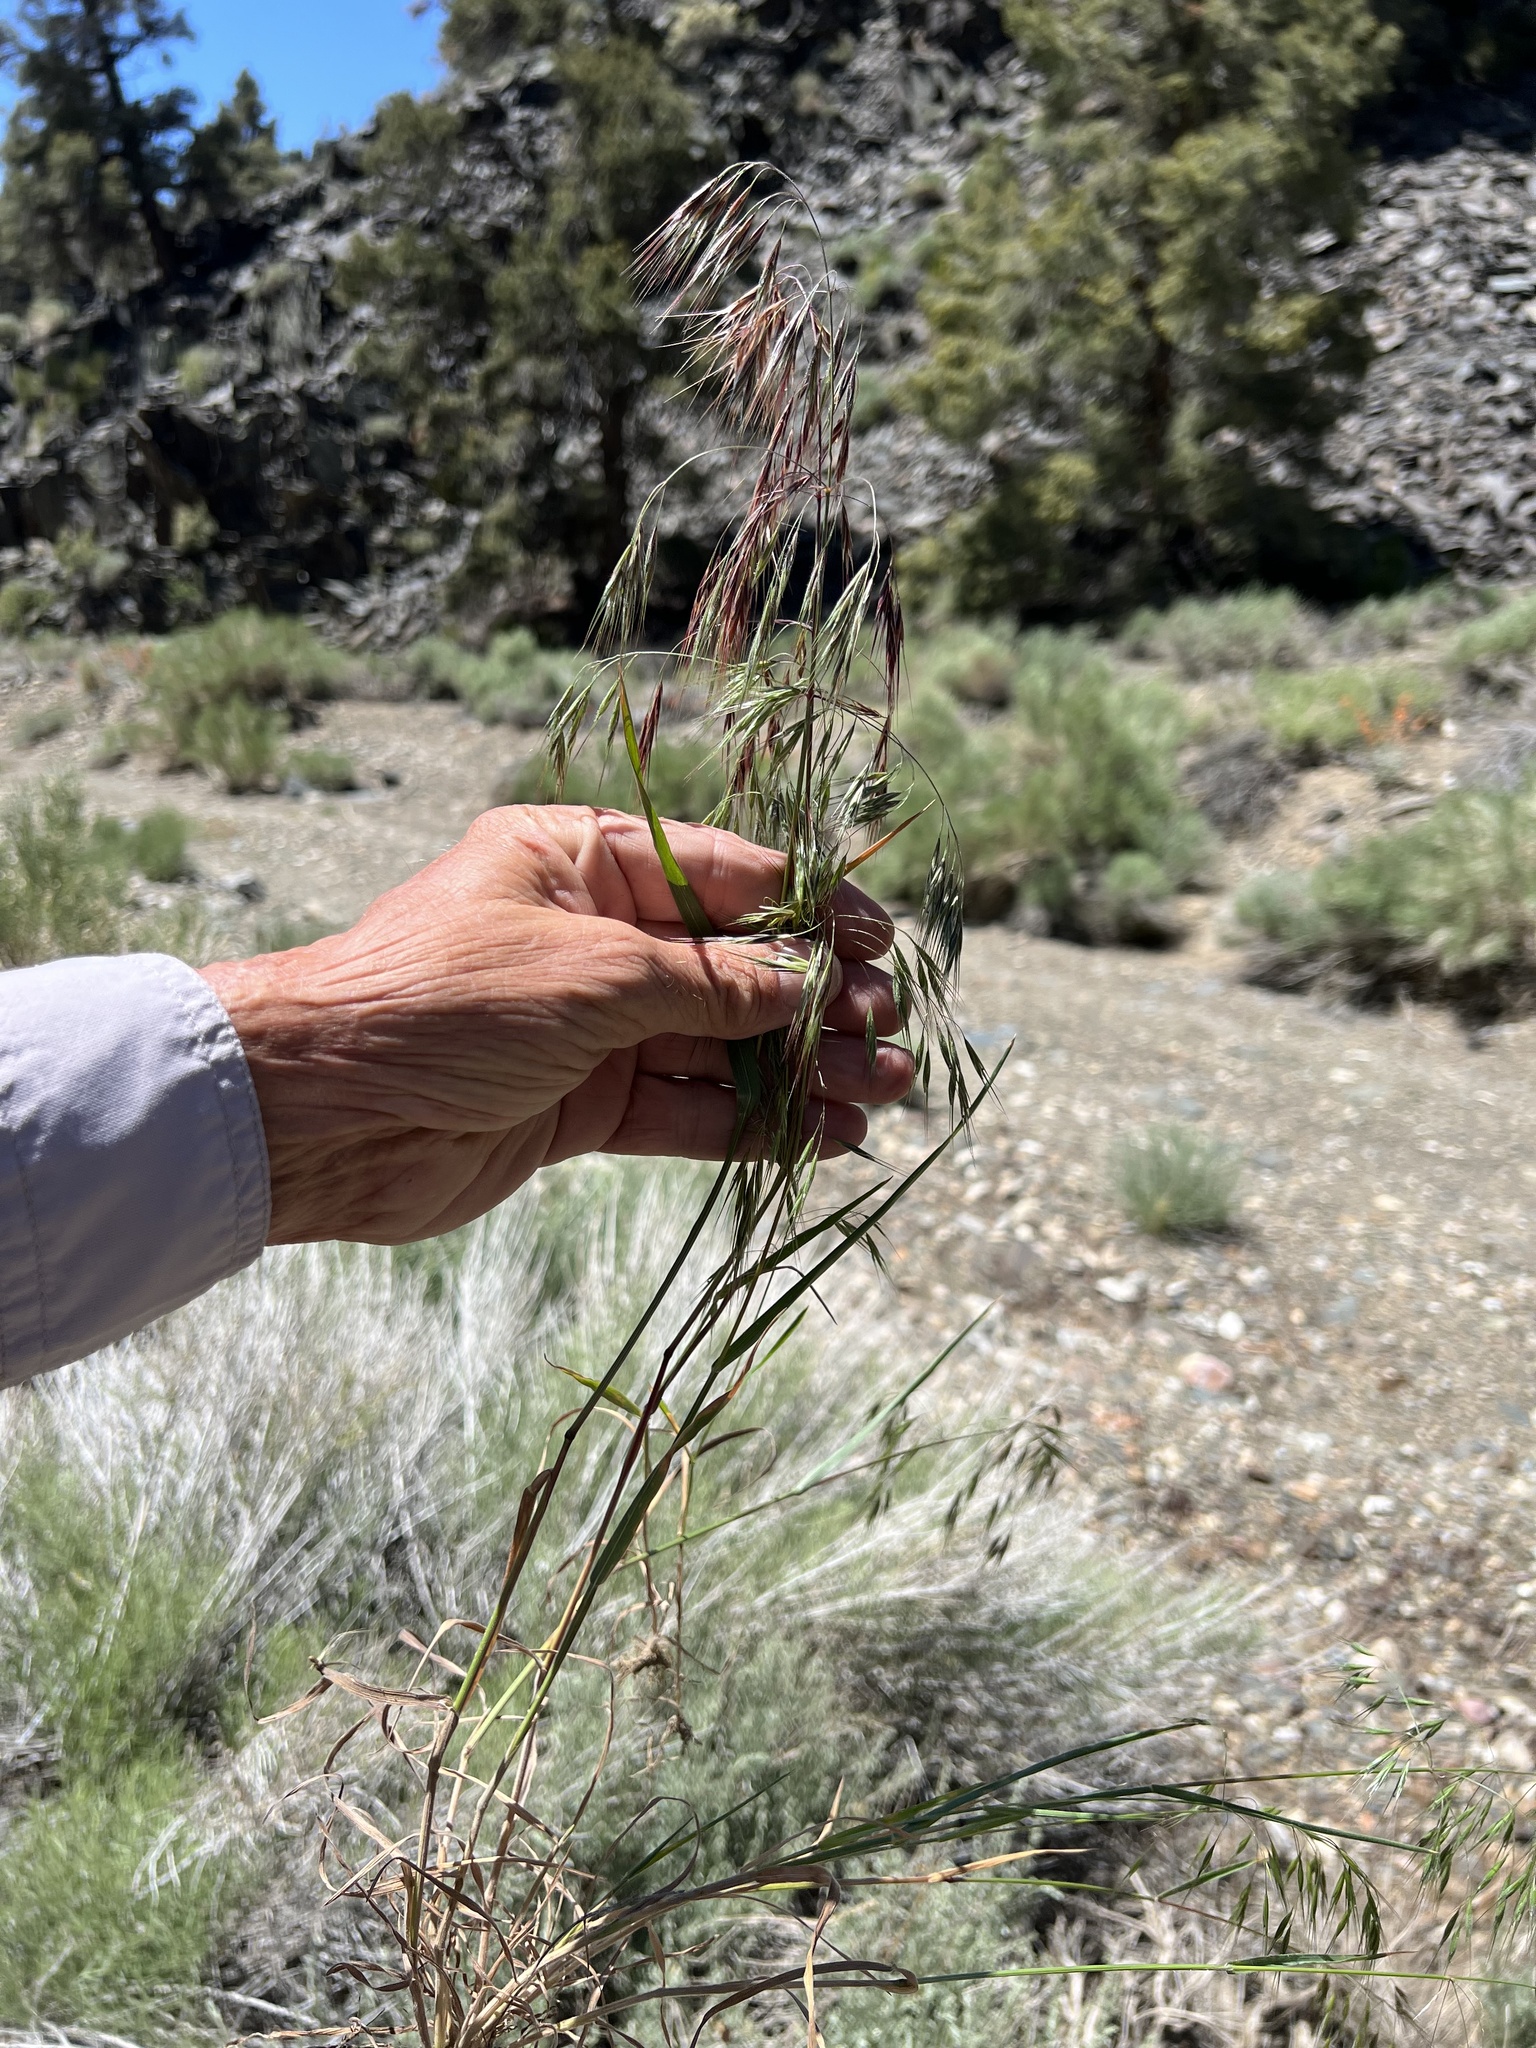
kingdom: Plantae
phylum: Tracheophyta
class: Liliopsida
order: Poales
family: Poaceae
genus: Bromus
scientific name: Bromus tectorum
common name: Cheatgrass
